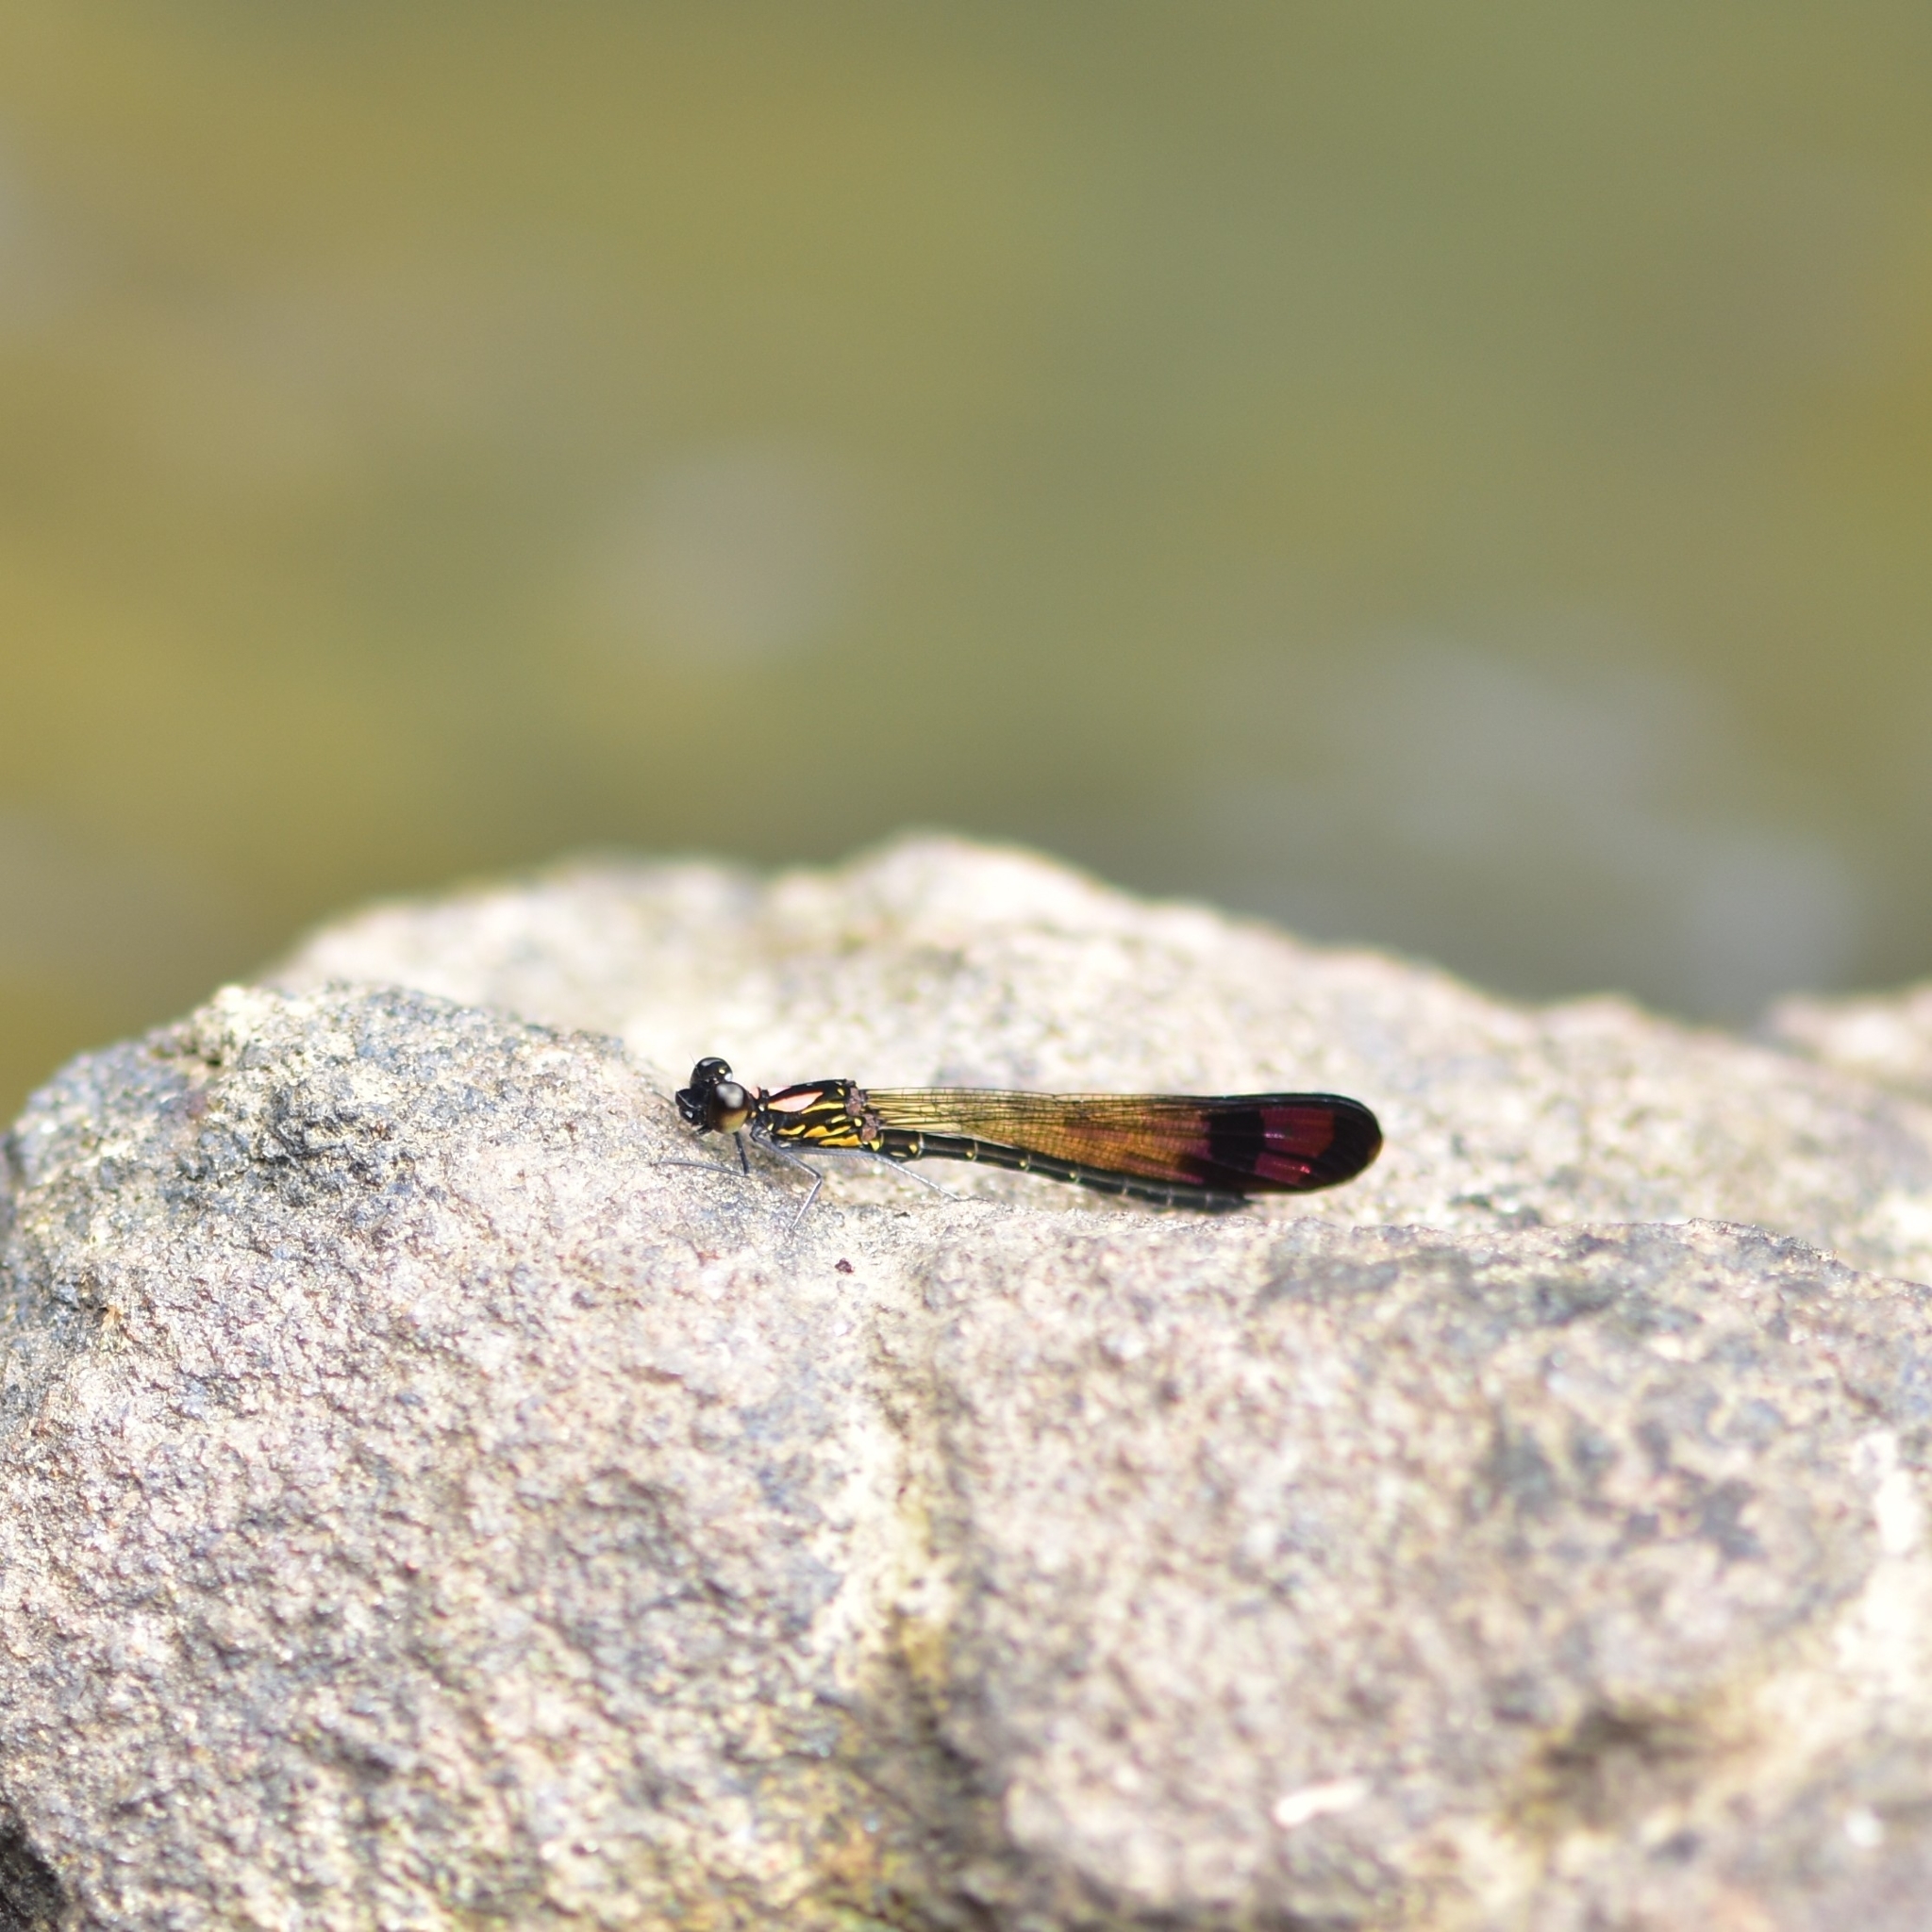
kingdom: Animalia
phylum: Arthropoda
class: Insecta
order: Odonata
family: Chlorocyphidae
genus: Heliocypha
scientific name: Heliocypha bisignata
